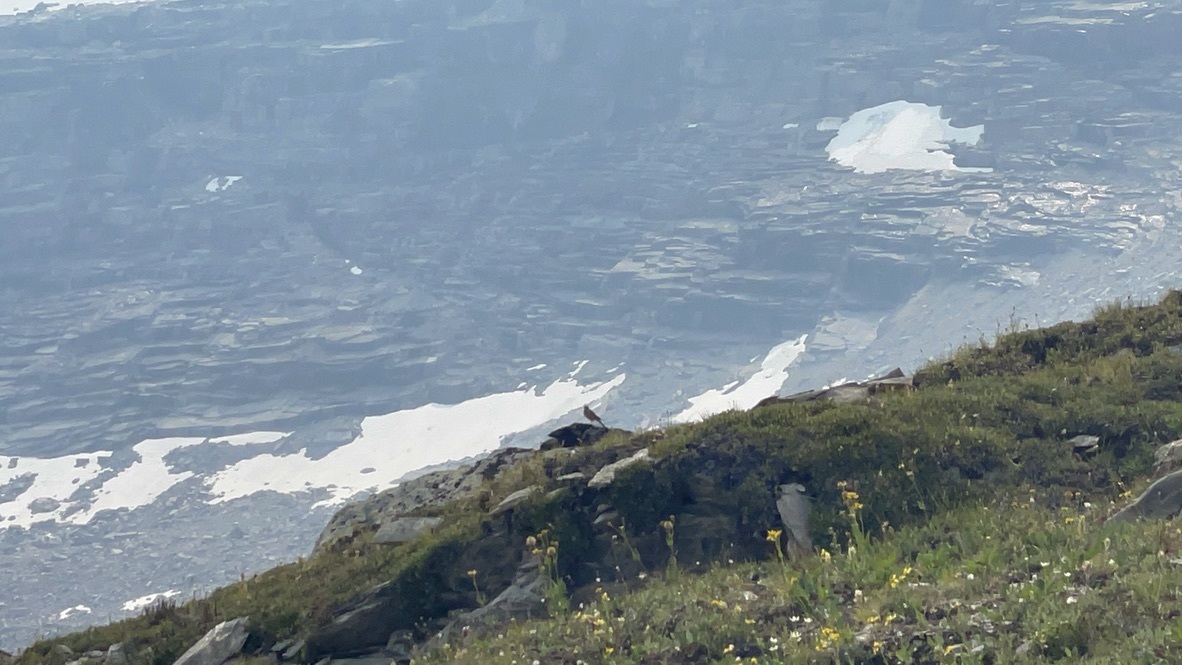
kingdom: Animalia
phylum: Chordata
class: Aves
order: Passeriformes
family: Motacillidae
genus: Anthus
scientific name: Anthus rubescens
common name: Buff-bellied pipit
